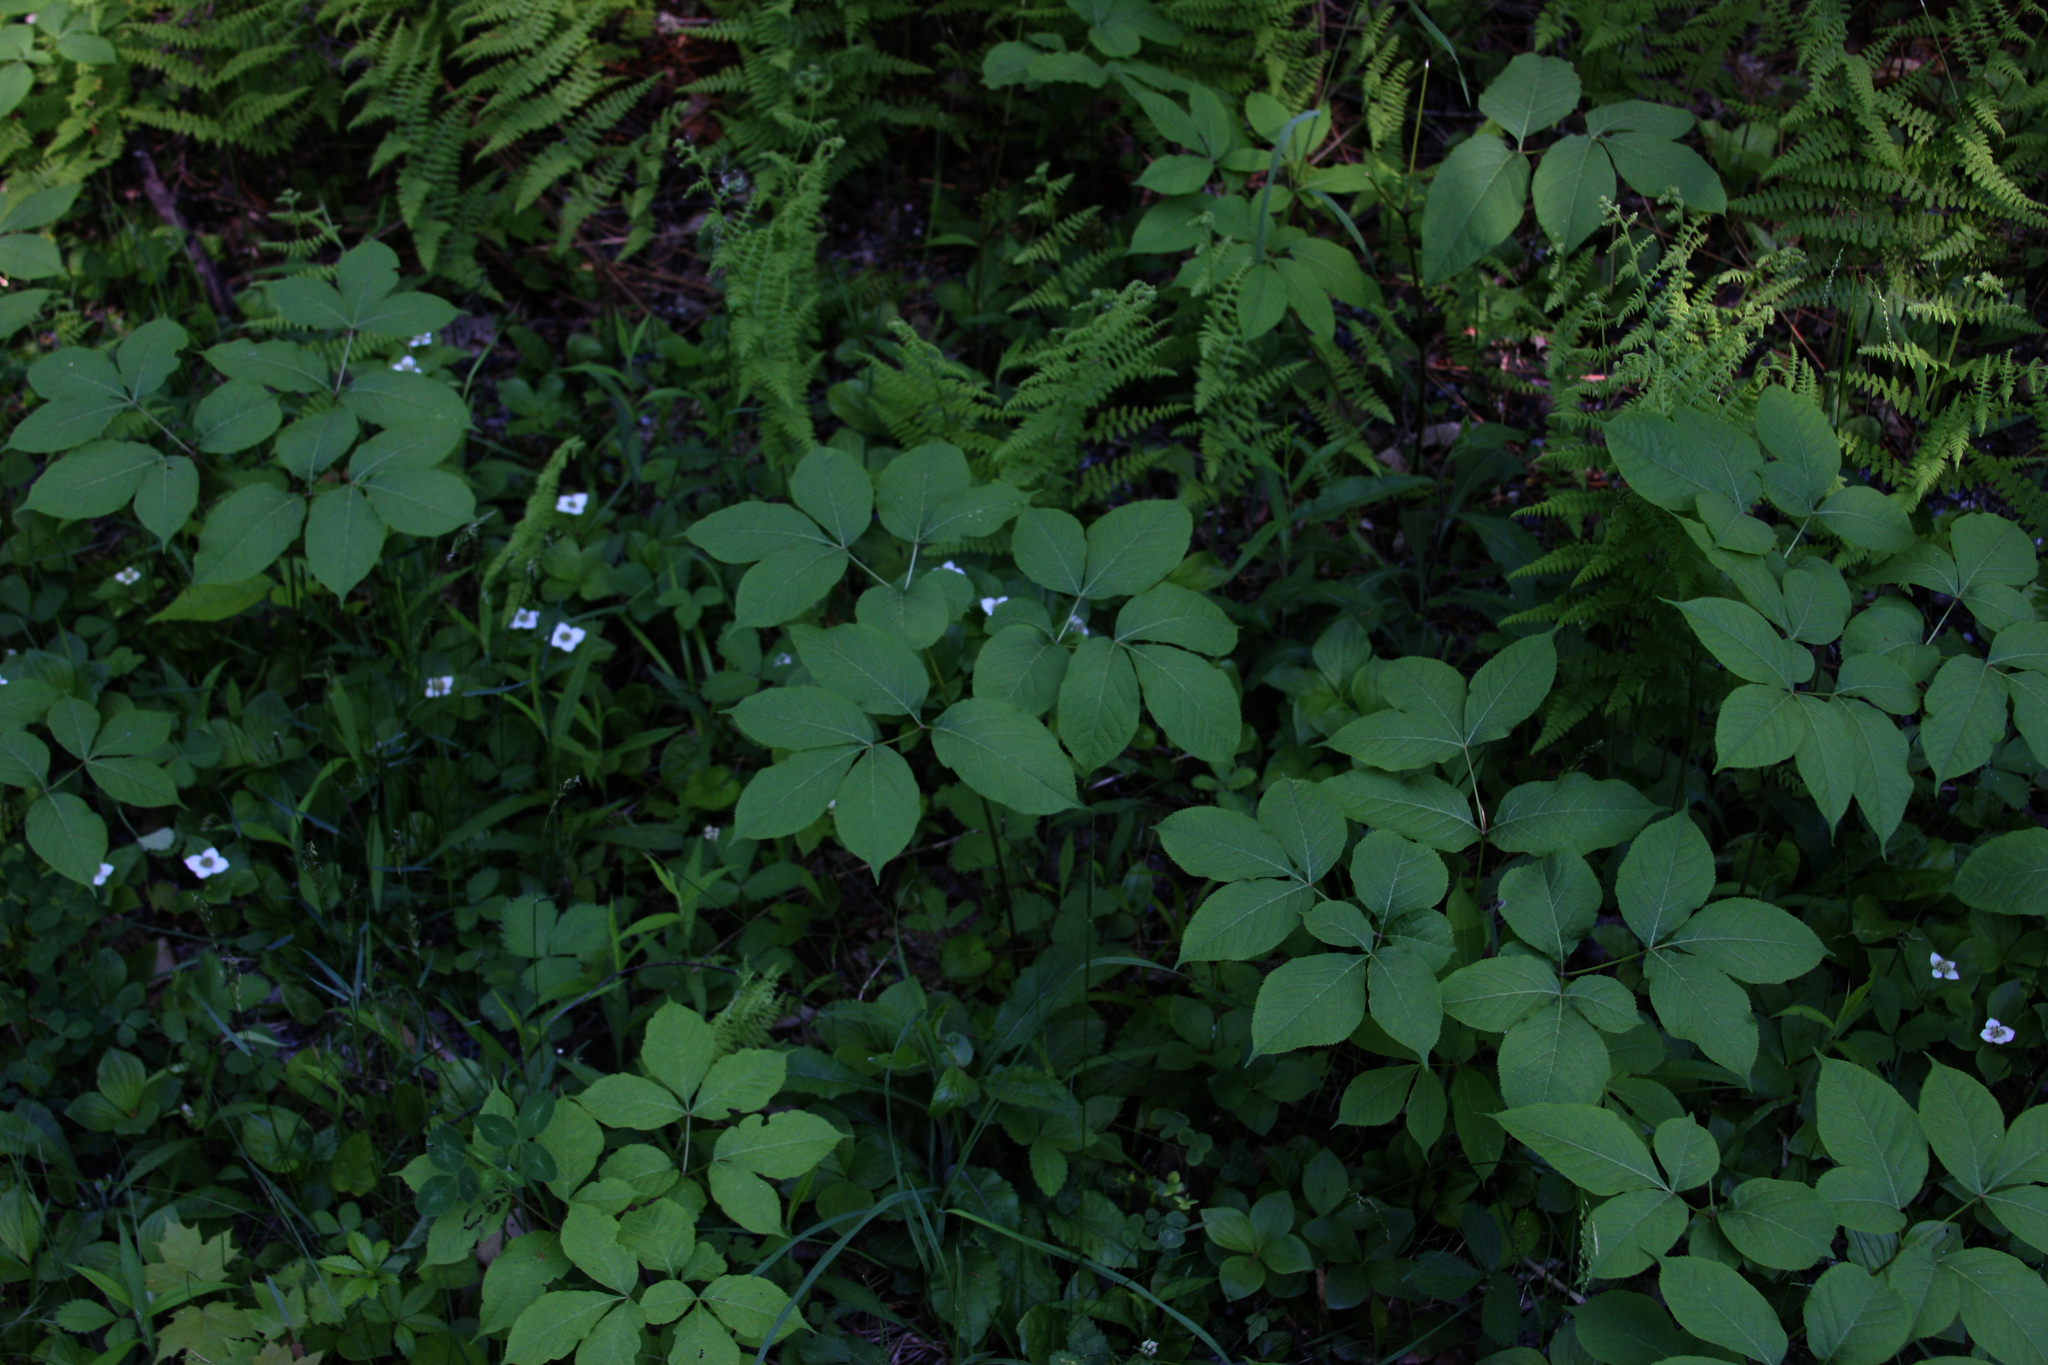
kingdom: Plantae
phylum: Tracheophyta
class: Magnoliopsida
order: Apiales
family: Araliaceae
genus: Aralia
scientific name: Aralia nudicaulis
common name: Wild sarsaparilla
